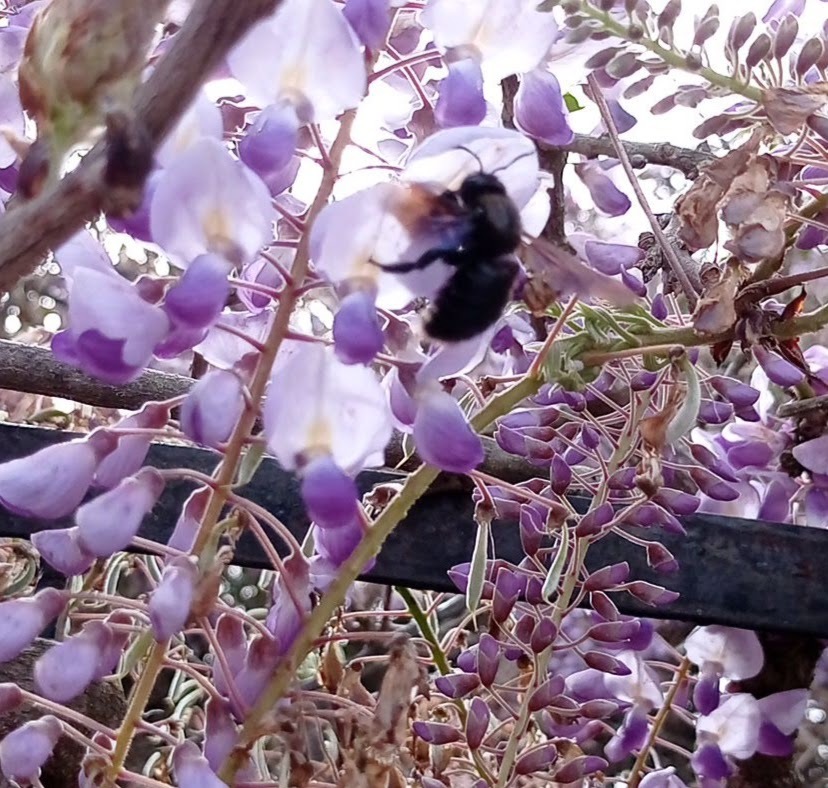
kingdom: Animalia
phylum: Arthropoda
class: Insecta
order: Hymenoptera
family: Apidae
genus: Xylocopa
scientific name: Xylocopa violacea
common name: Violet carpenter bee
